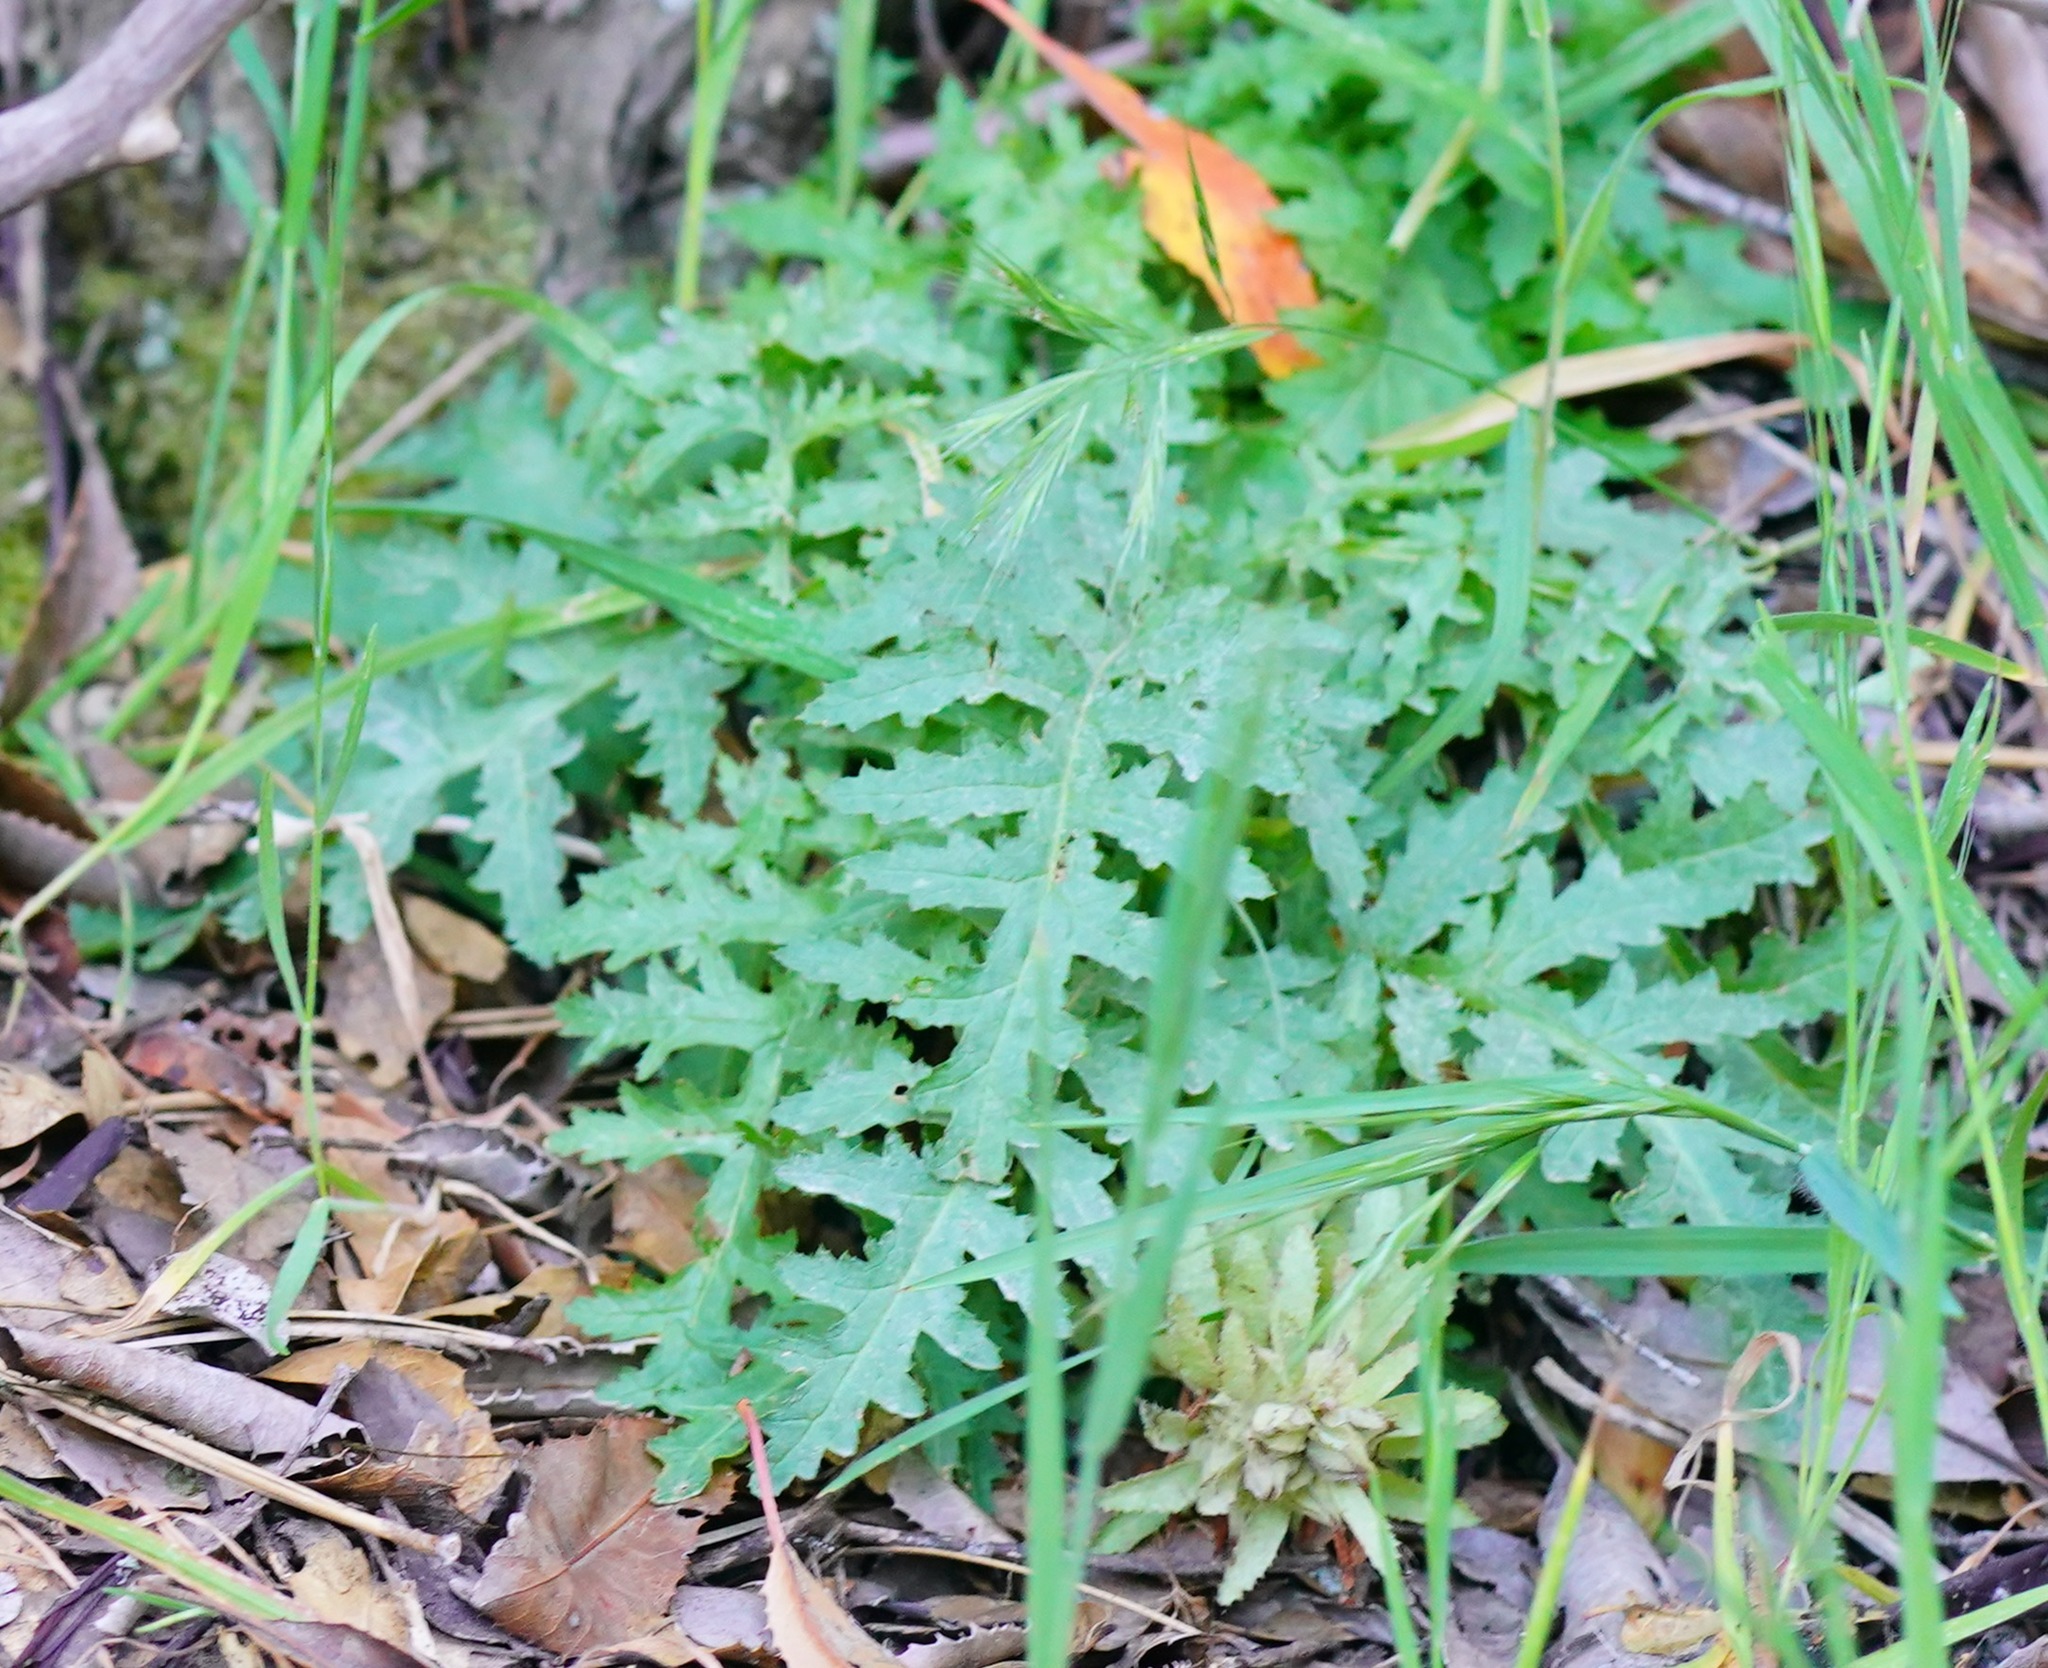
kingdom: Plantae
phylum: Tracheophyta
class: Magnoliopsida
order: Lamiales
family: Orobanchaceae
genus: Pedicularis
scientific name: Pedicularis densiflora
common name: Indian warrior
